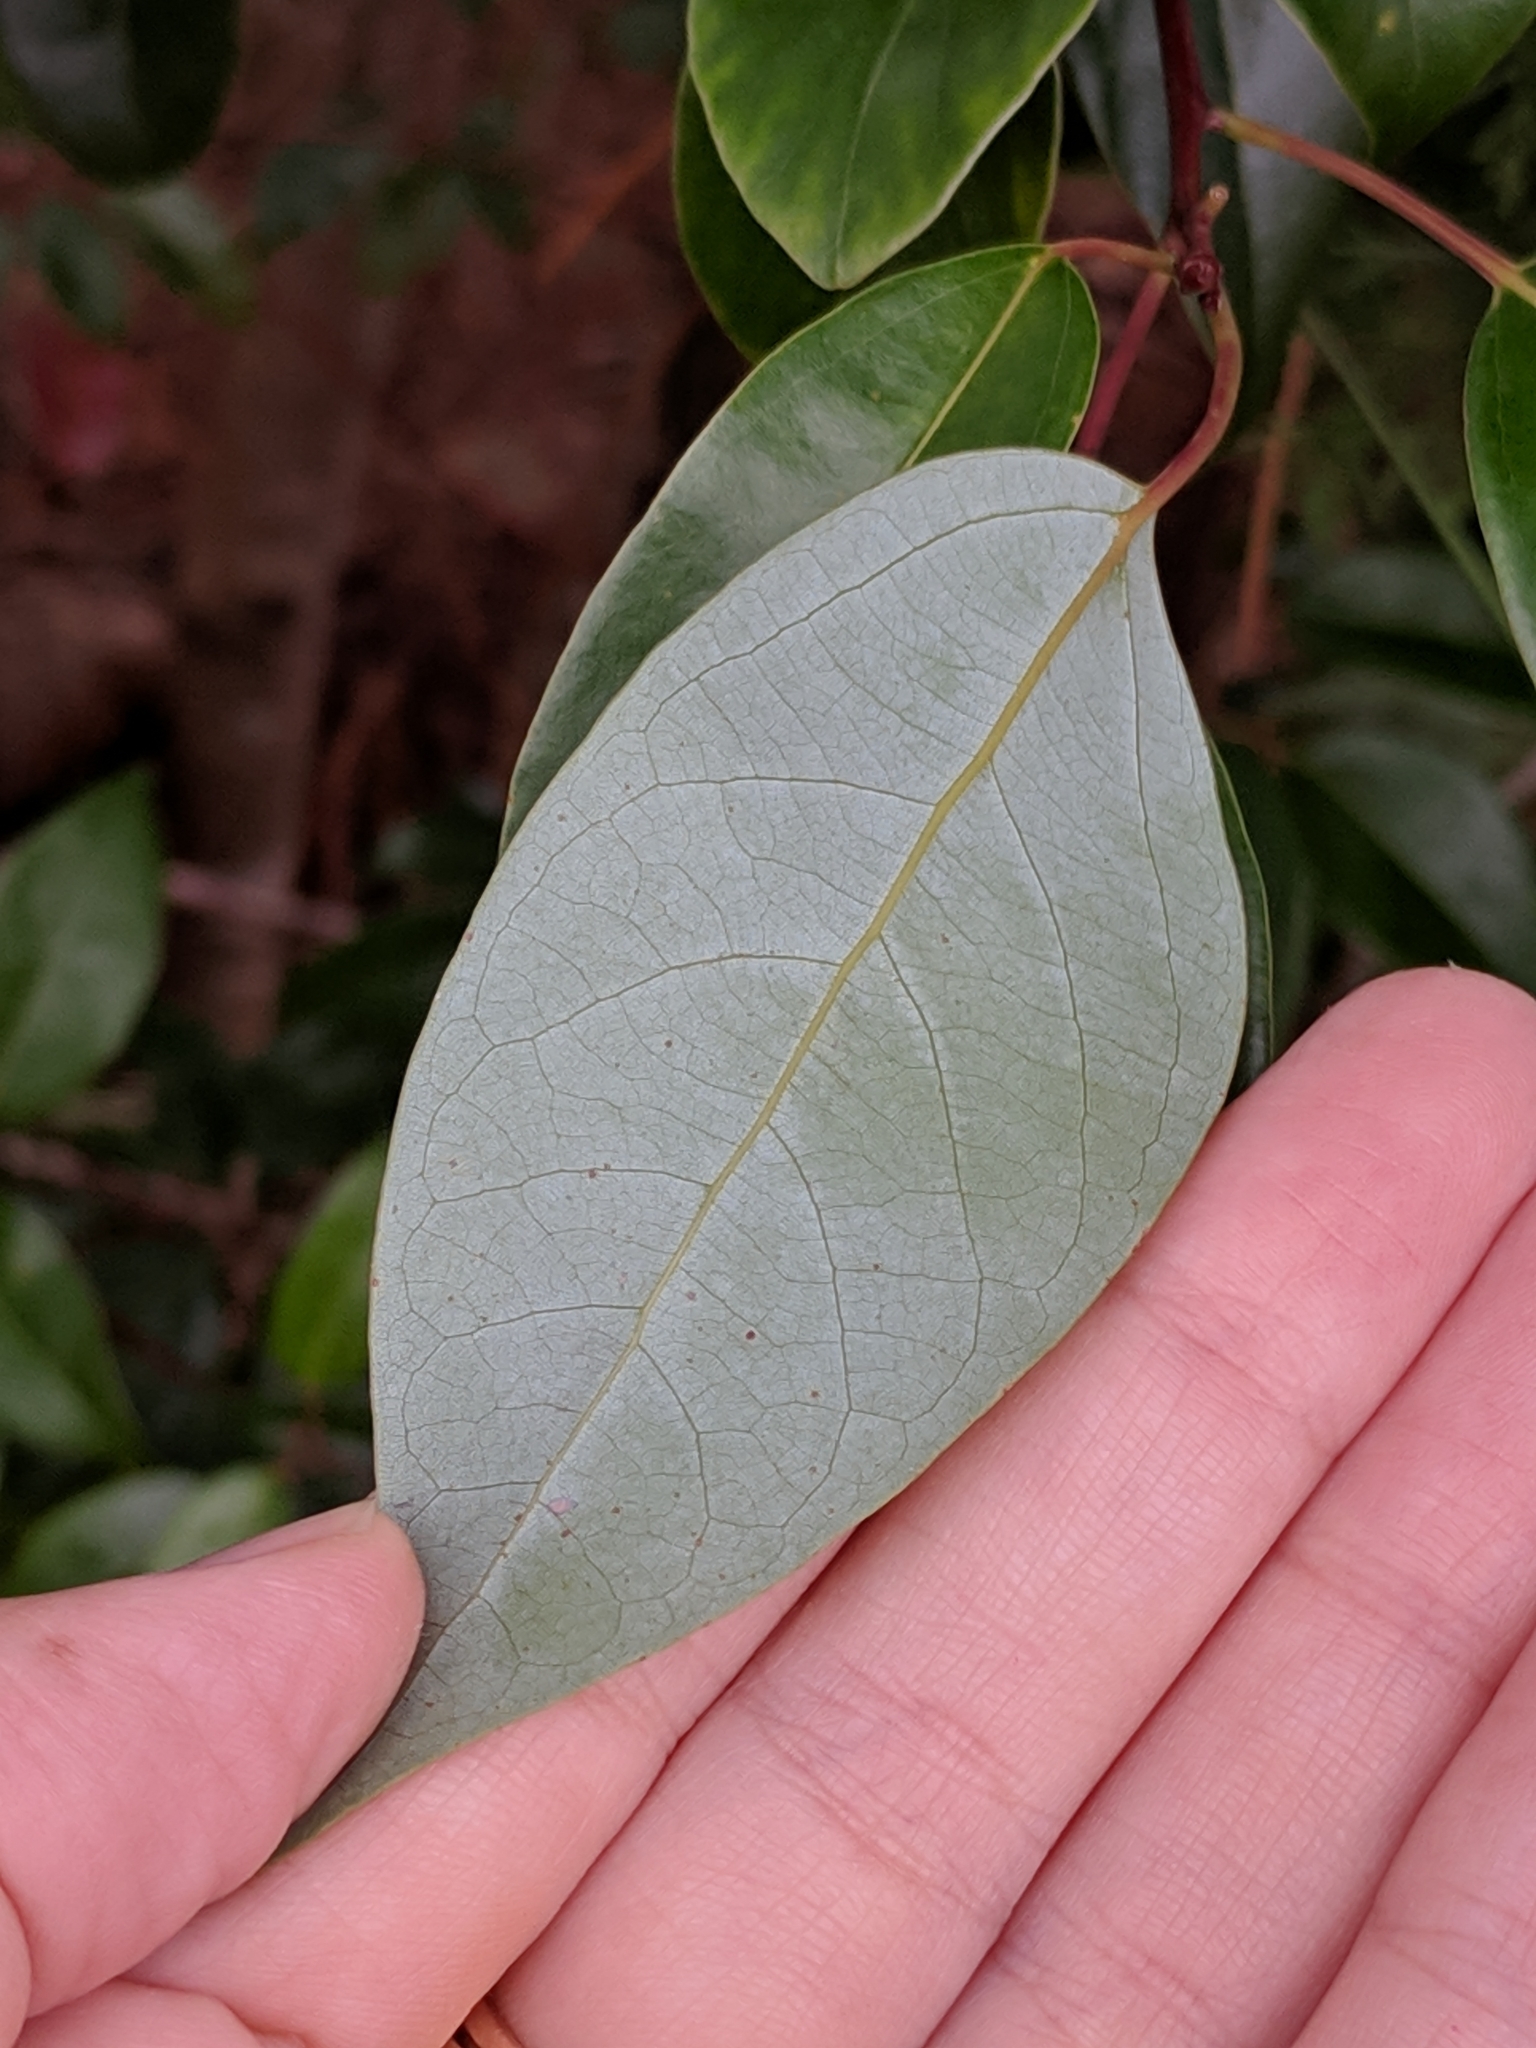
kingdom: Plantae
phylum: Tracheophyta
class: Magnoliopsida
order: Laurales
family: Lauraceae
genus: Cinnamomum
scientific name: Cinnamomum camphora
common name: Camphortree
